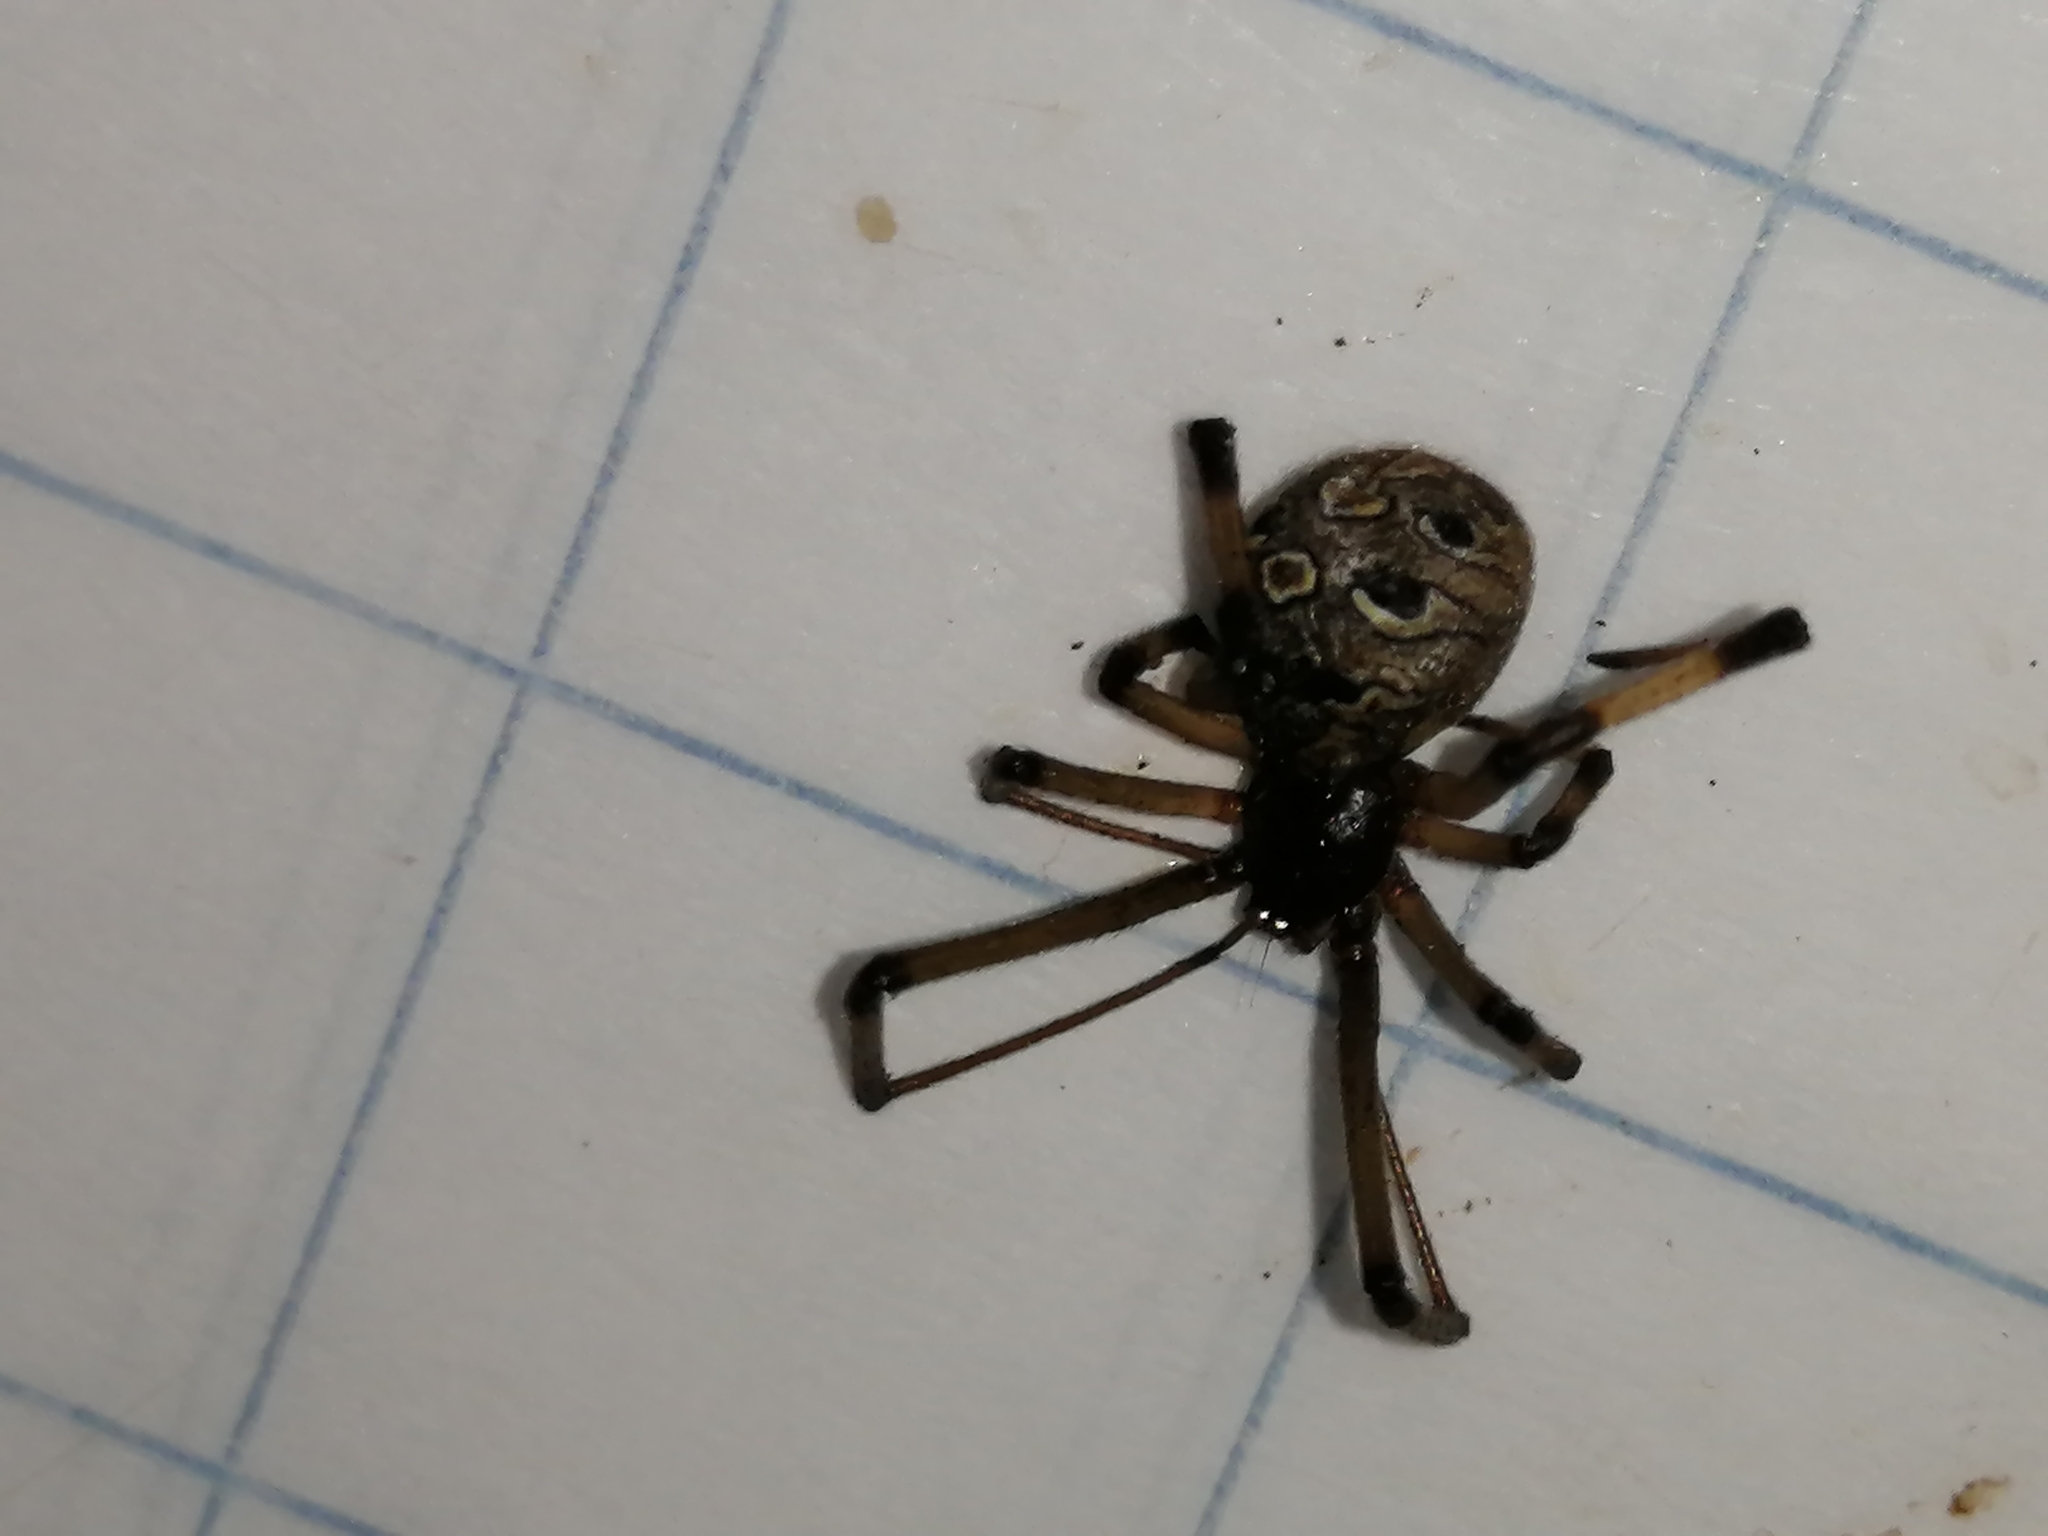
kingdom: Animalia
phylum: Arthropoda
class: Arachnida
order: Araneae
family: Theridiidae
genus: Latrodectus
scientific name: Latrodectus geometricus
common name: Brown widow spider
